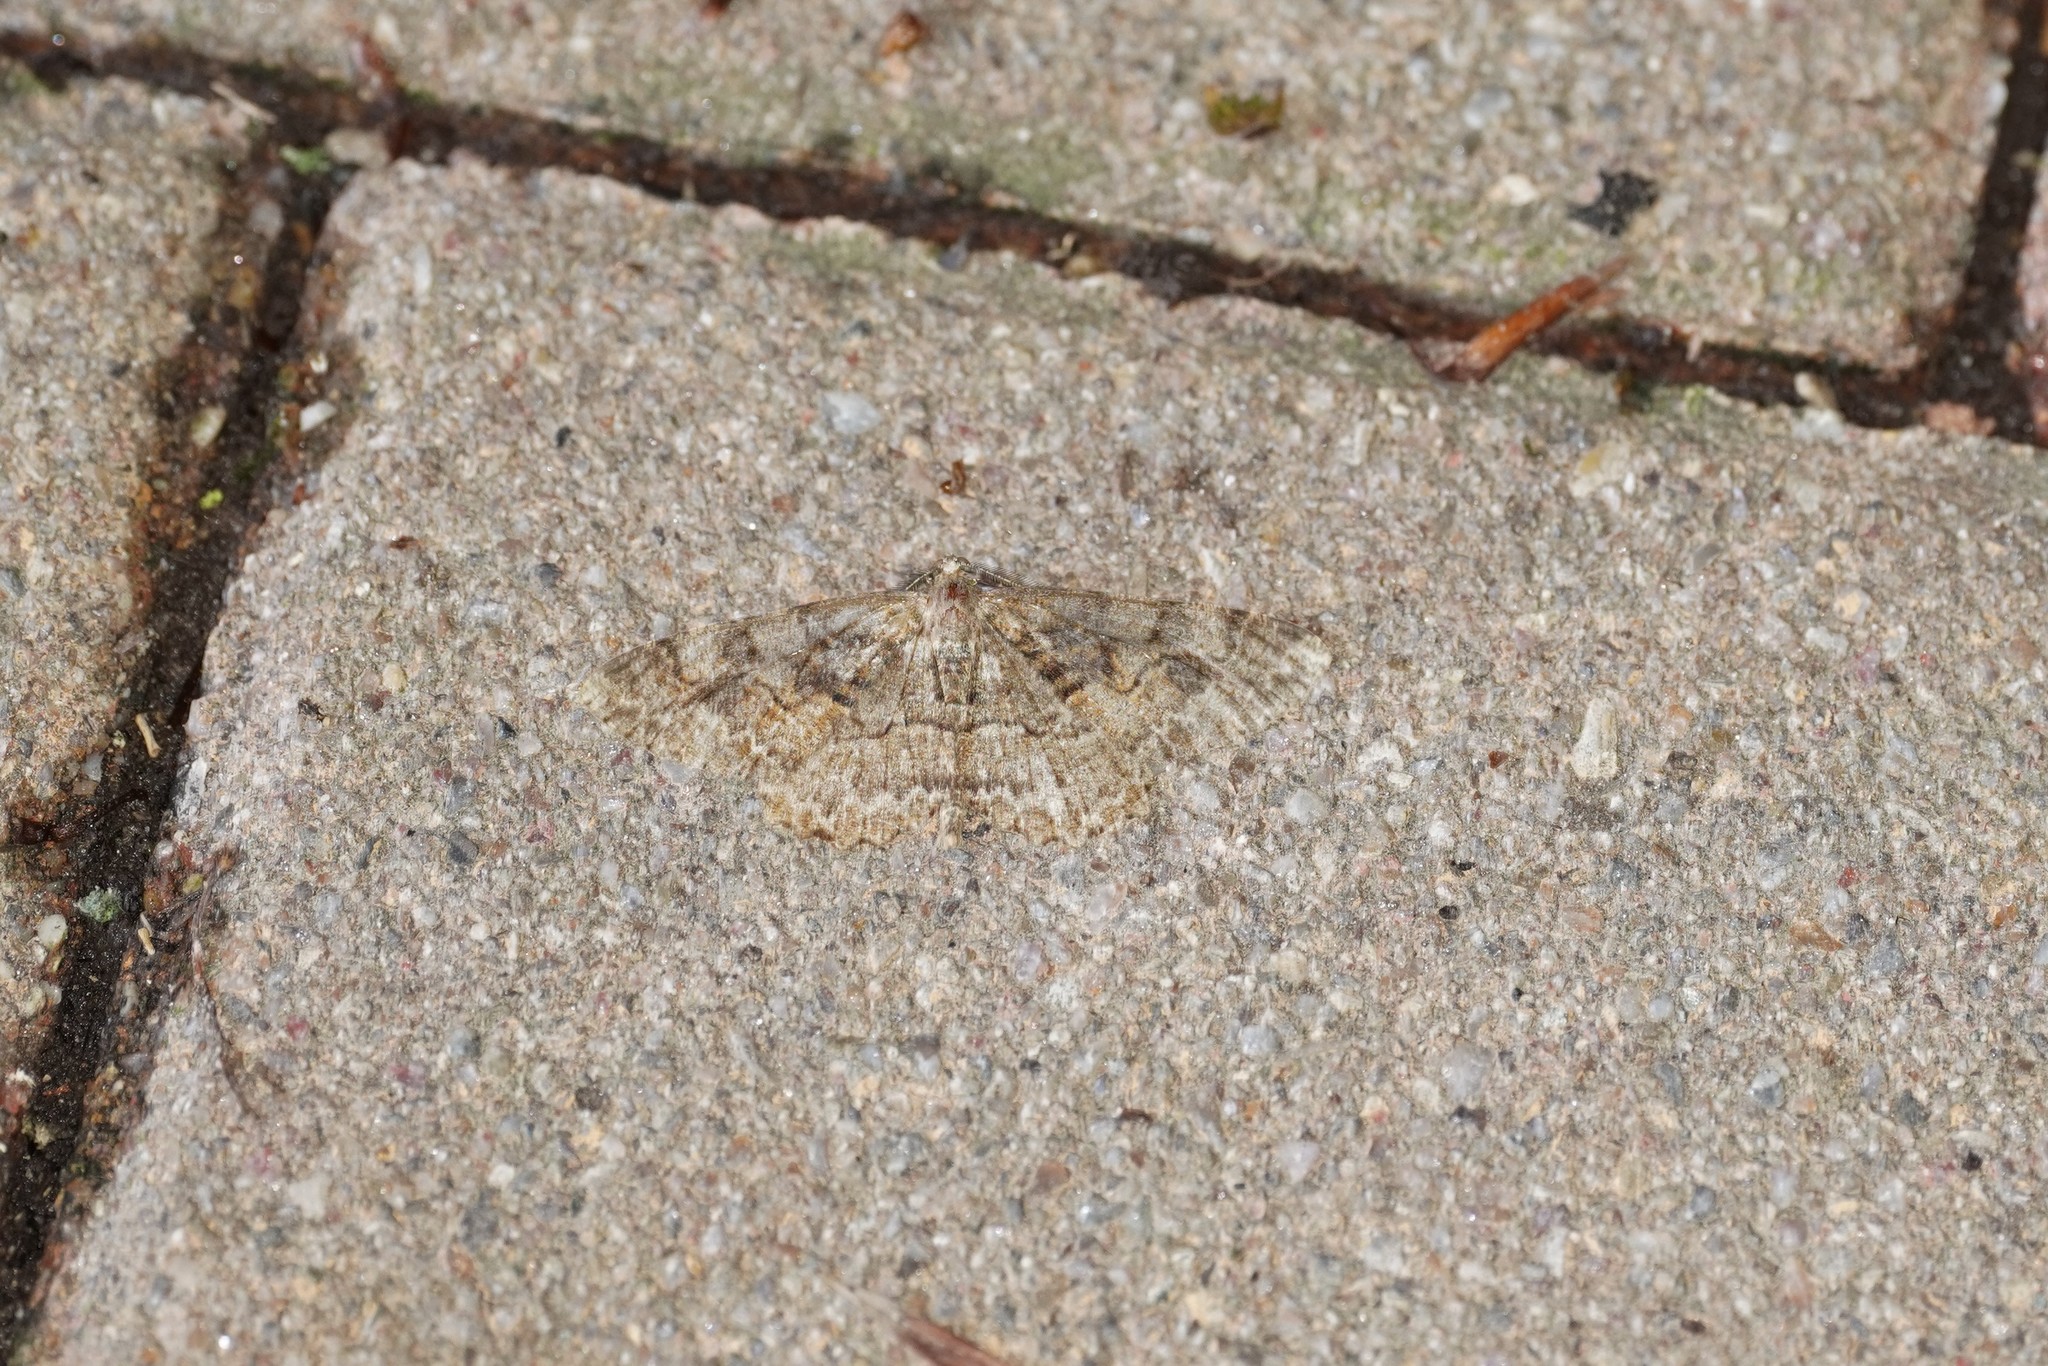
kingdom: Animalia
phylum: Arthropoda
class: Insecta
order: Lepidoptera
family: Geometridae
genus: Alcis
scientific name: Alcis repandata
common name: Mottled beauty
